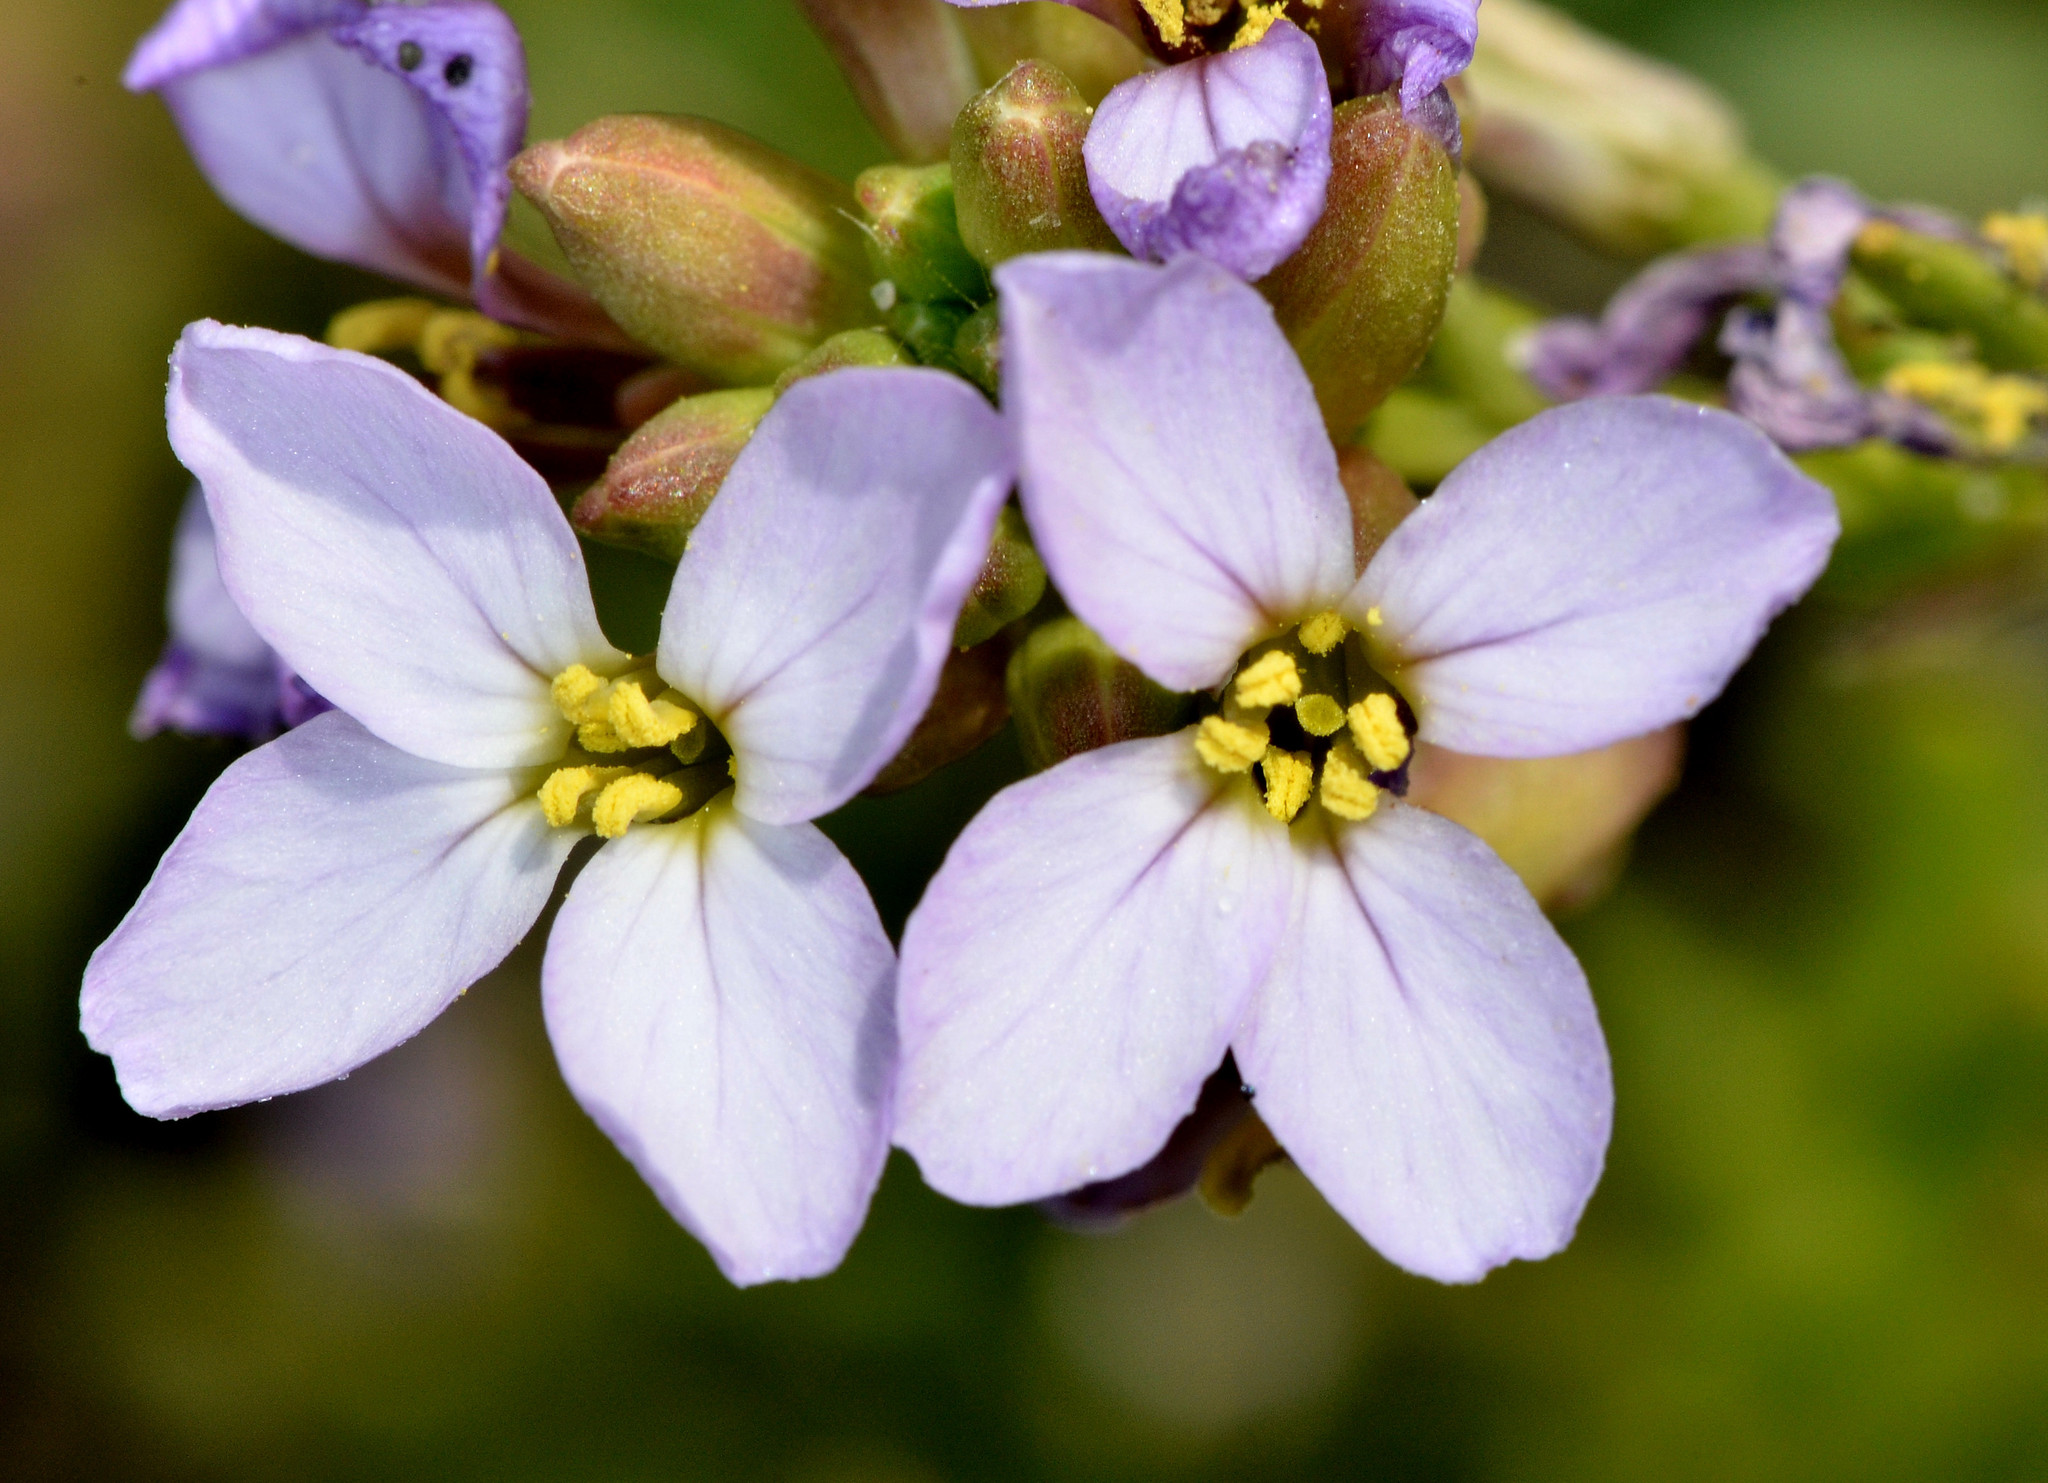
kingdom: Plantae
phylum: Tracheophyta
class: Magnoliopsida
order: Brassicales
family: Brassicaceae
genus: Cakile
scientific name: Cakile maritima
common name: Sea rocket
